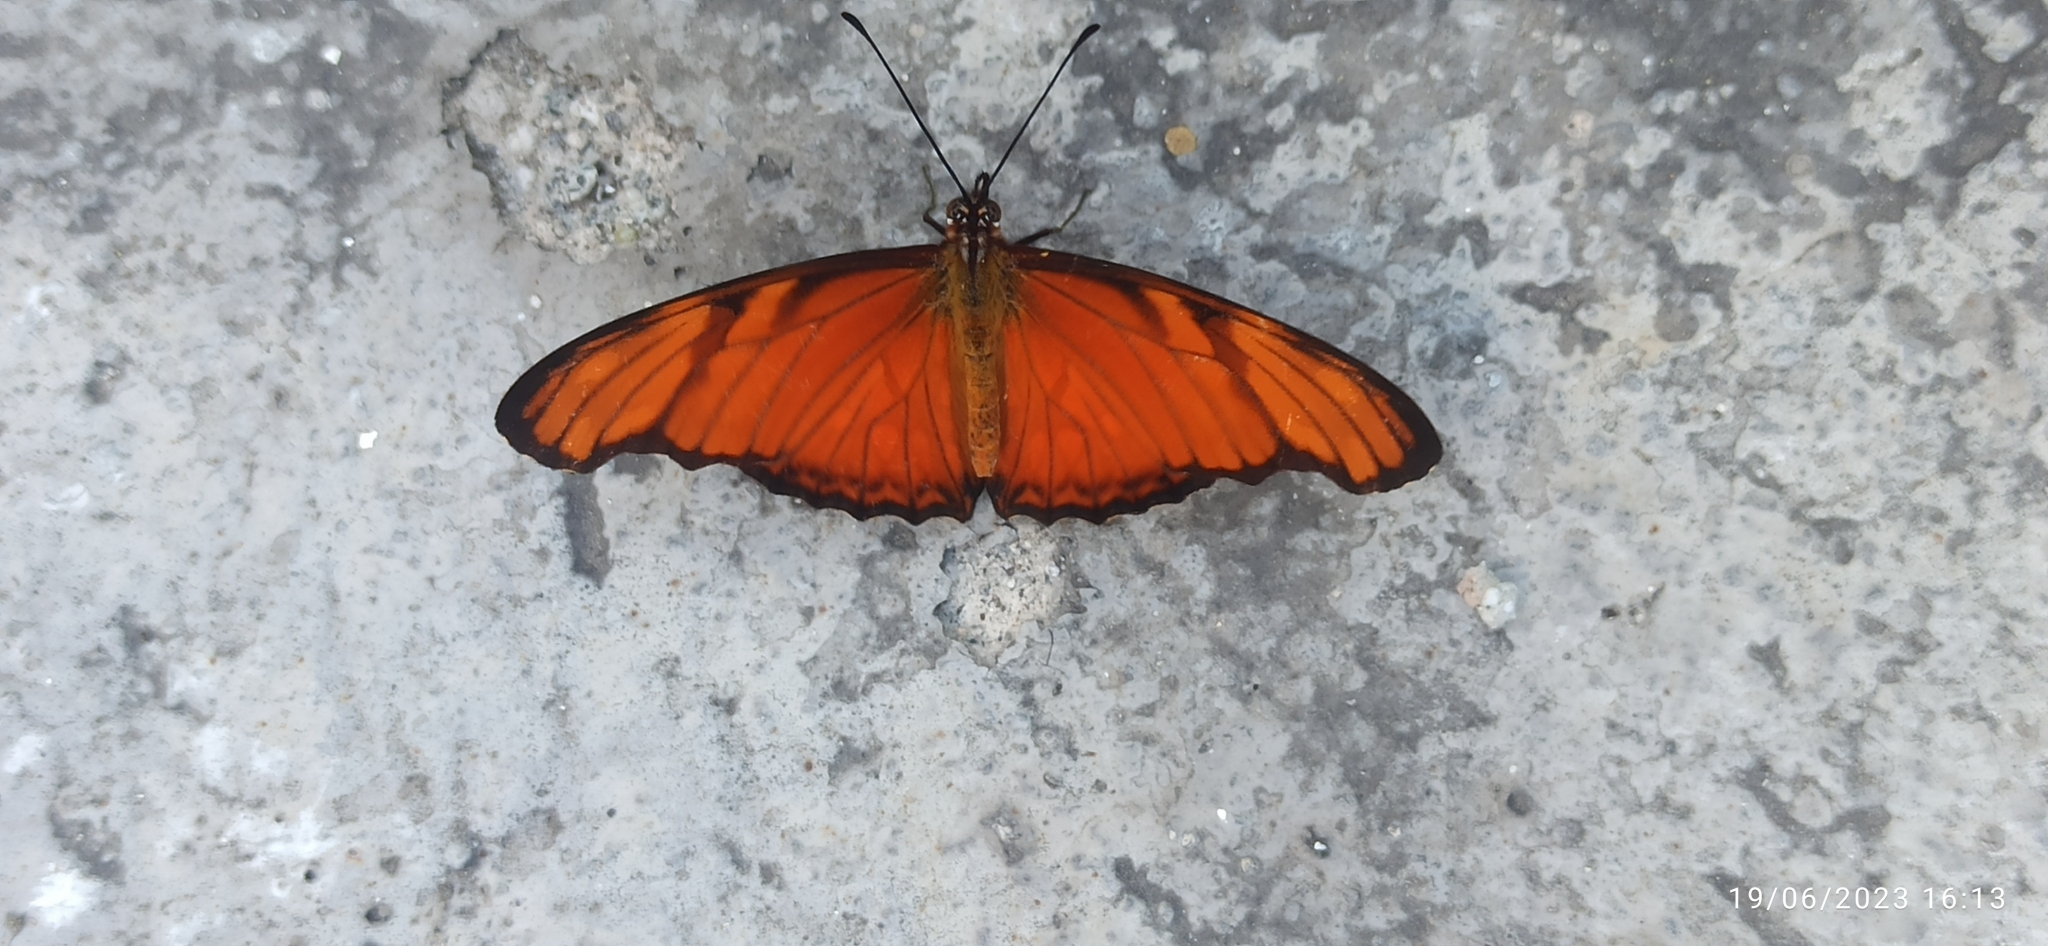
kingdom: Animalia
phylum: Arthropoda
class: Insecta
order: Lepidoptera
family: Nymphalidae
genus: Dione
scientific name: Dione juno
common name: Juno silverspot
